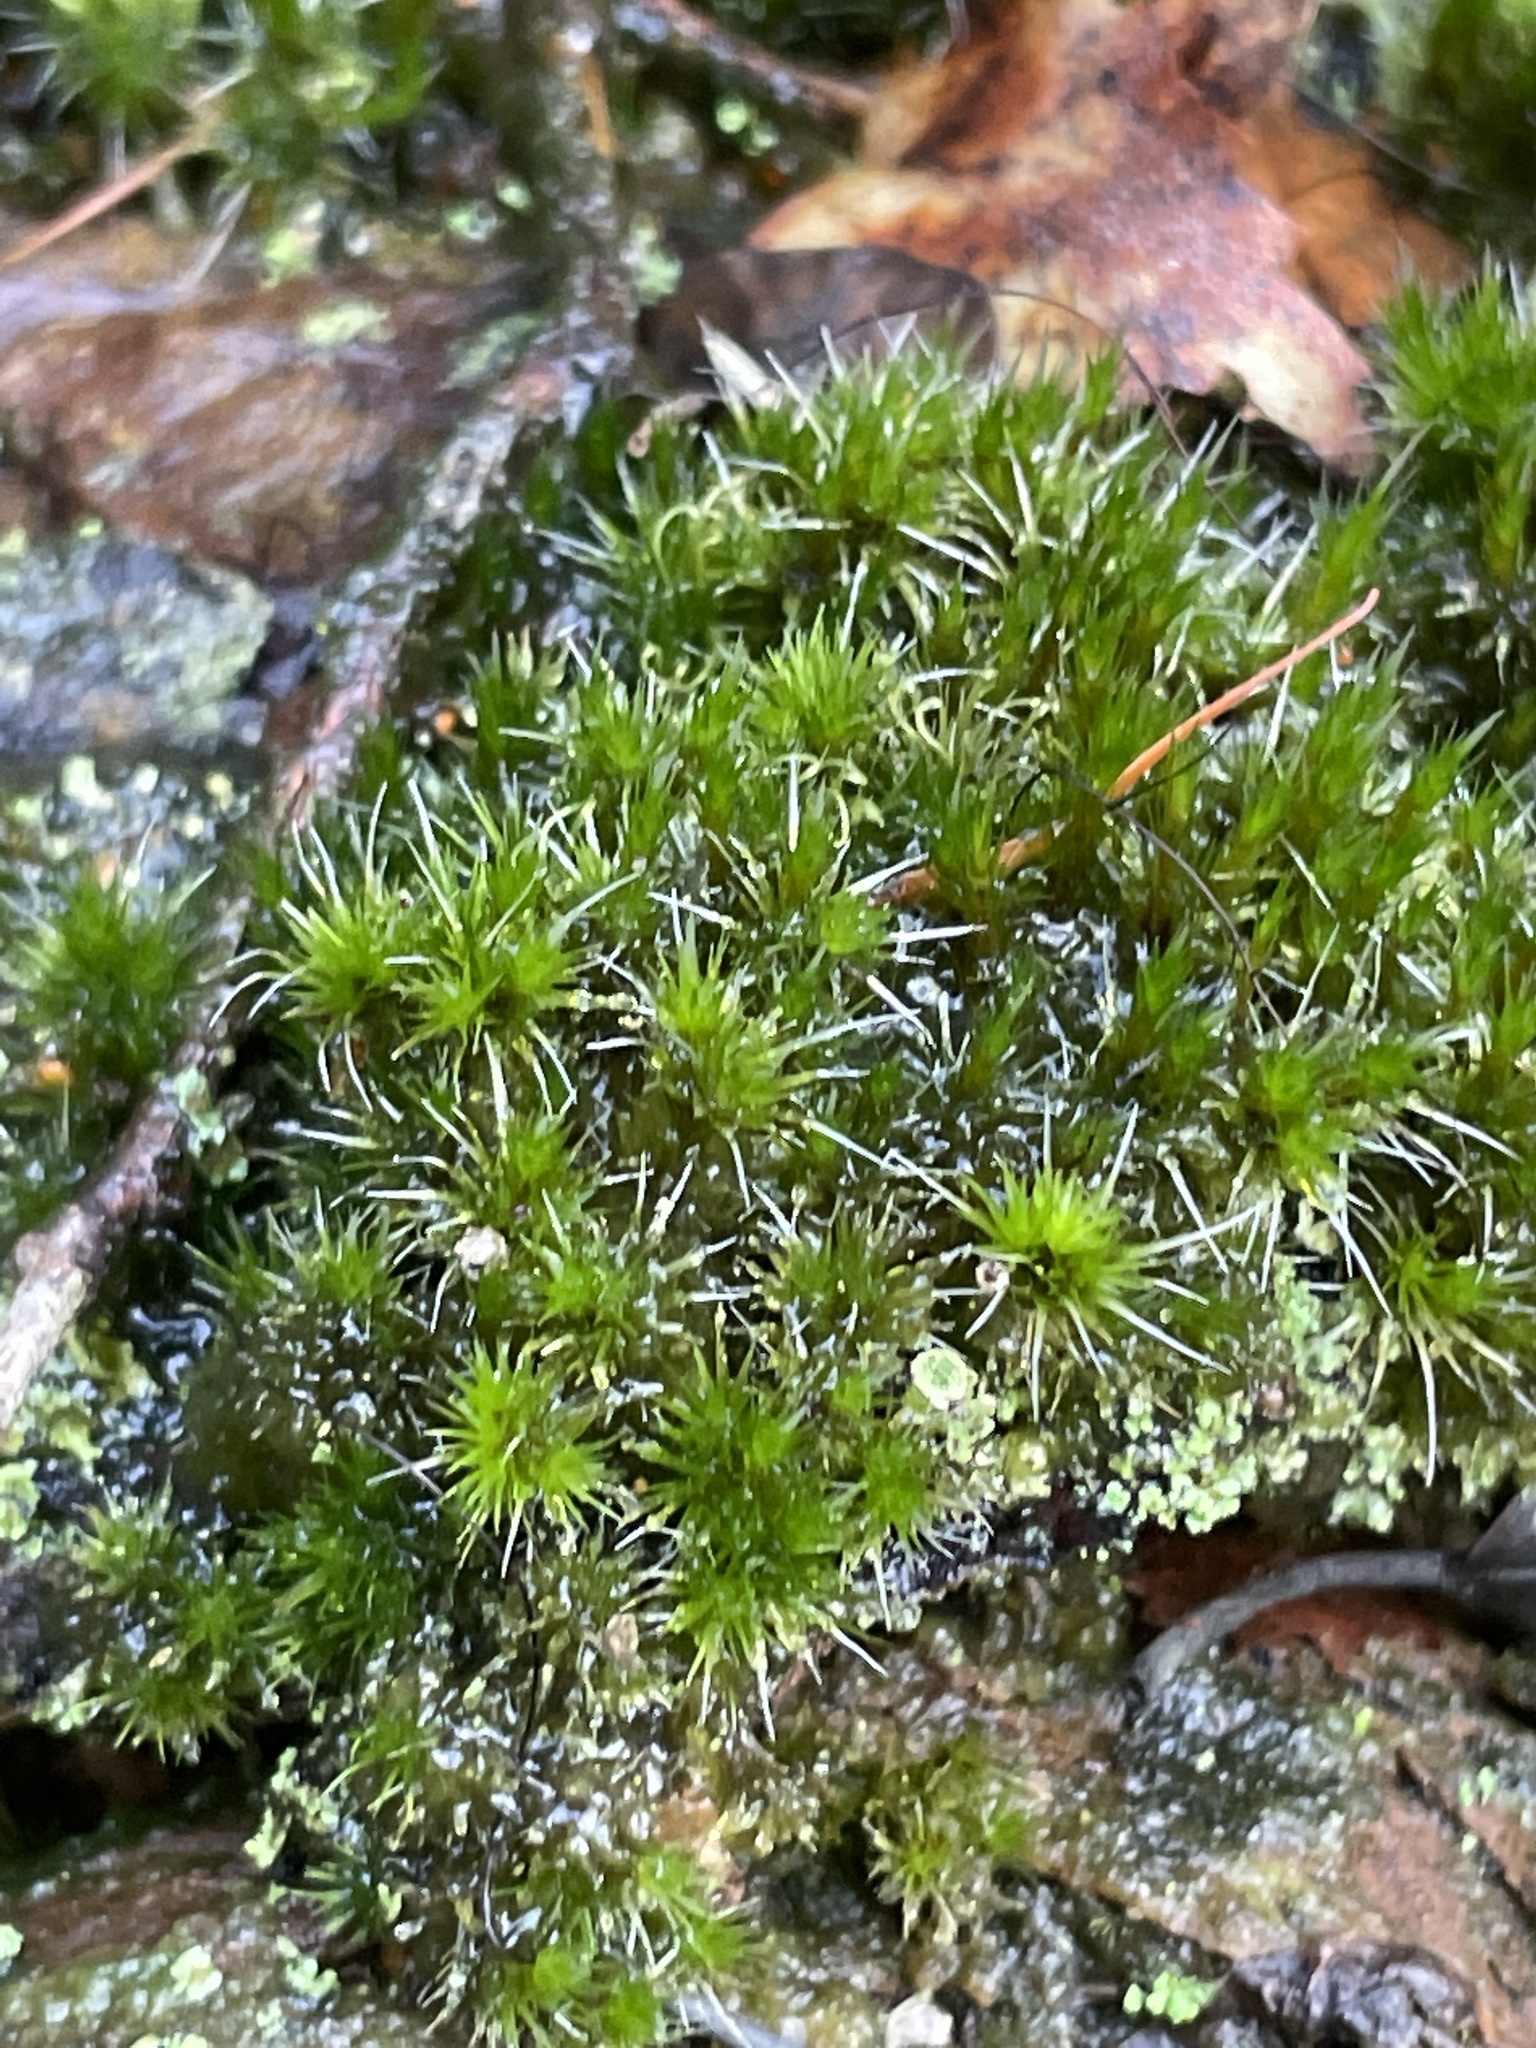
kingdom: Plantae
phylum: Bryophyta
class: Bryopsida
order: Dicranales
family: Leucobryaceae
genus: Campylopus
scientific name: Campylopus introflexus
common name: Heath star moss
